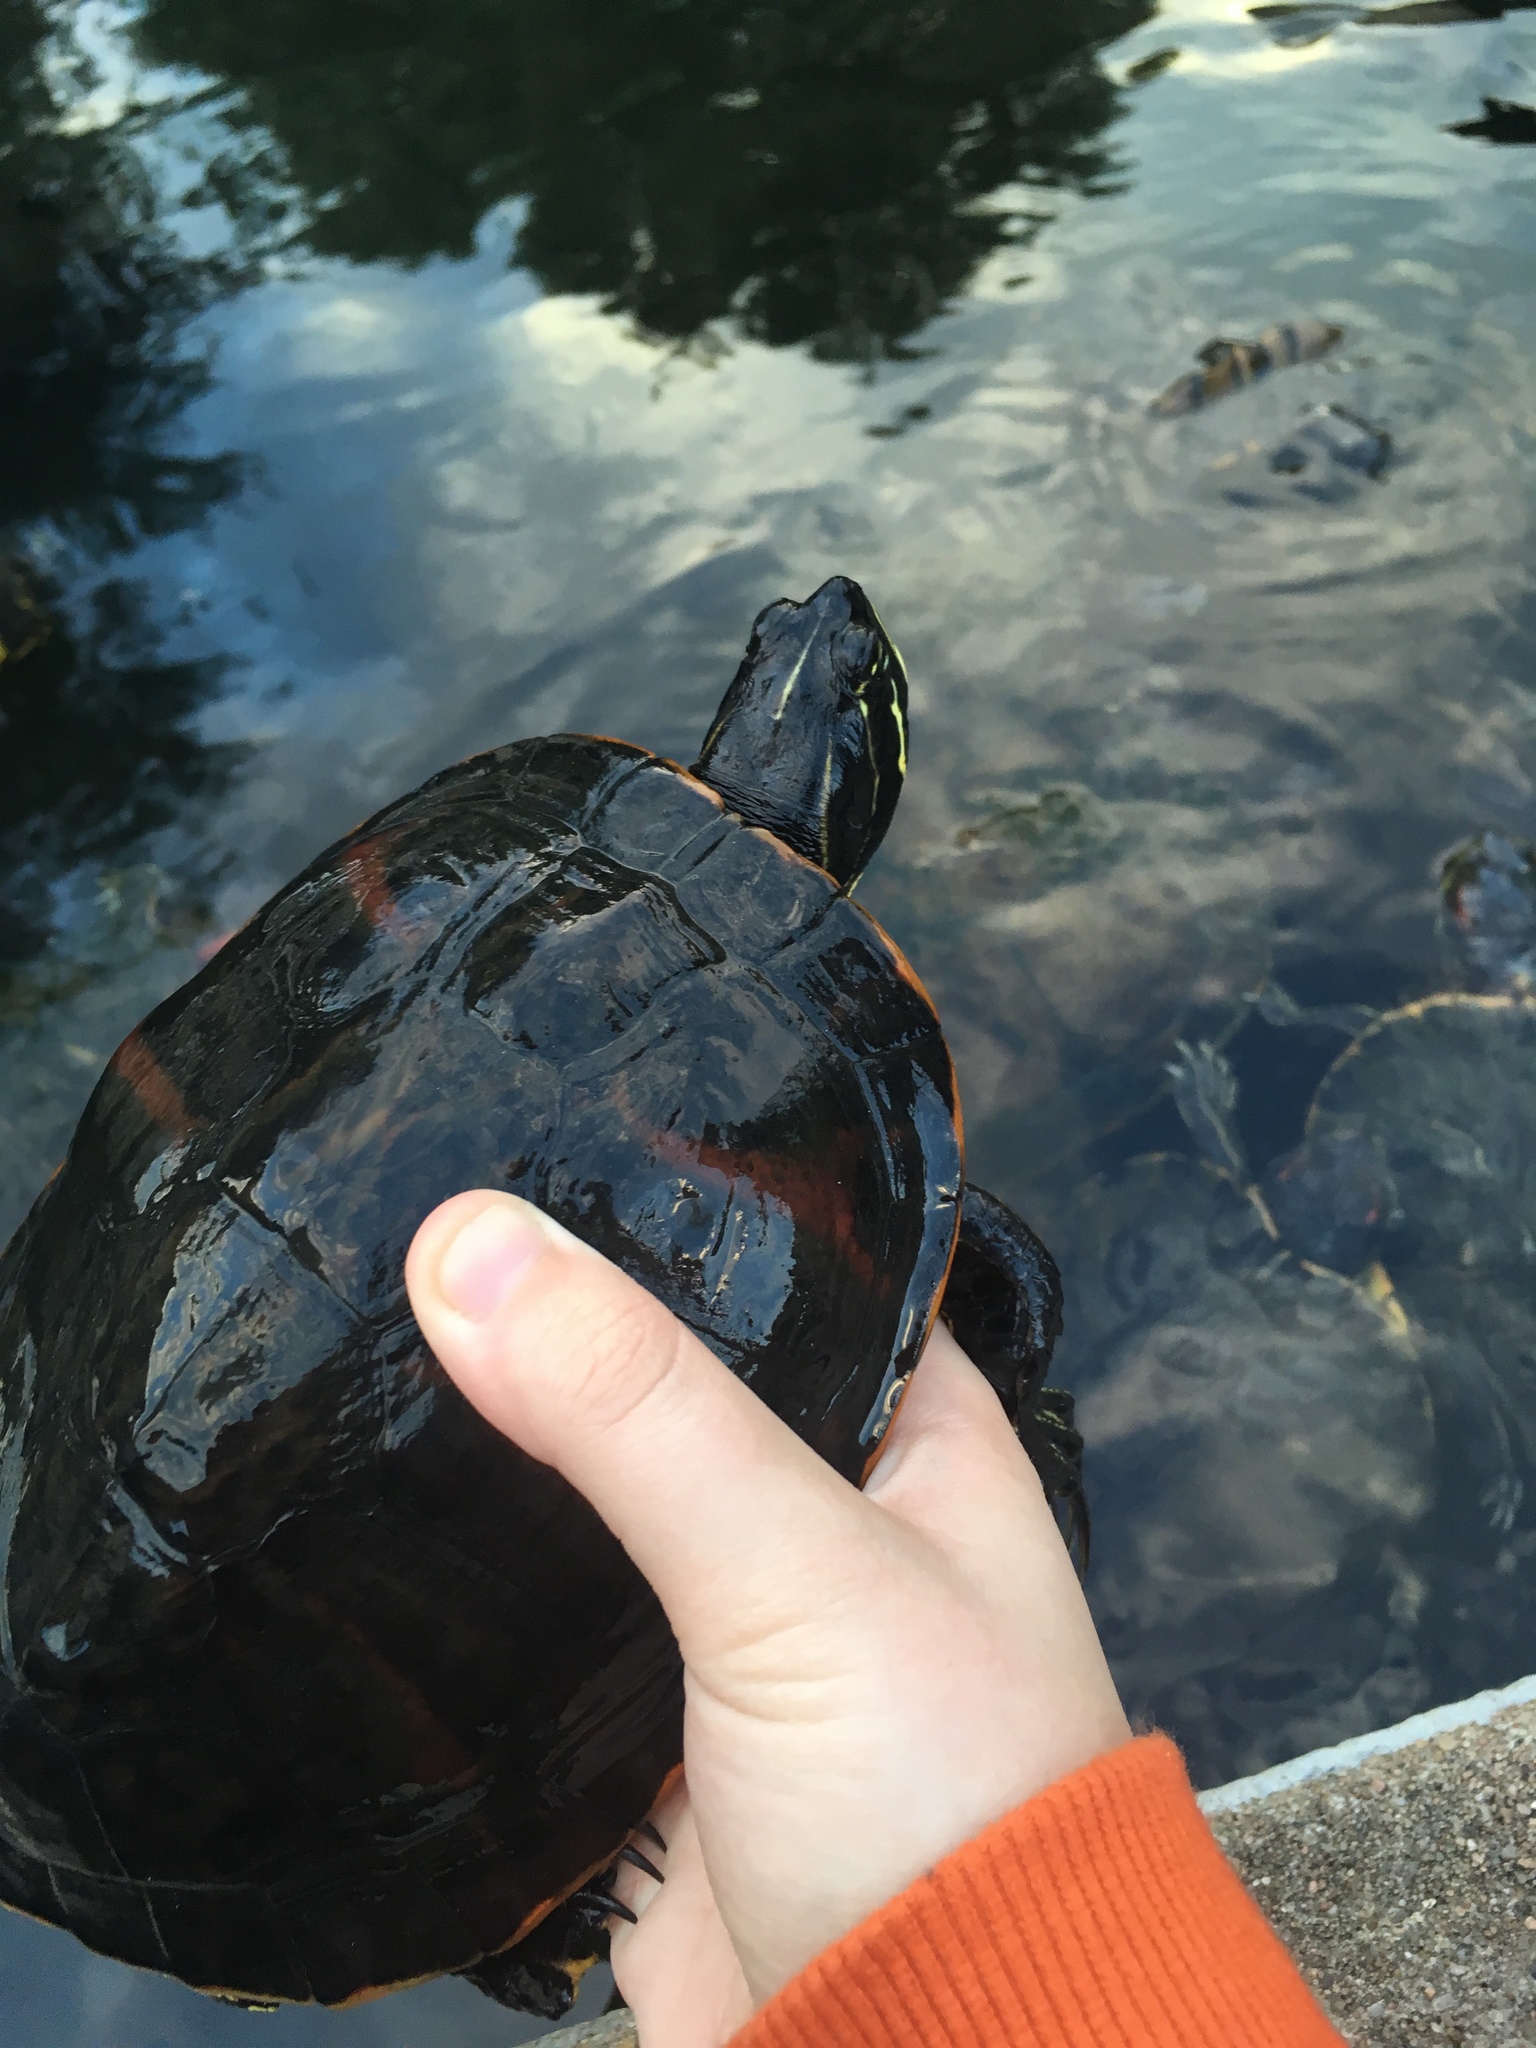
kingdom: Animalia
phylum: Chordata
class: Testudines
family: Emydidae
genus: Pseudemys
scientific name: Pseudemys nelsoni
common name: Florida red-bellied turtle
